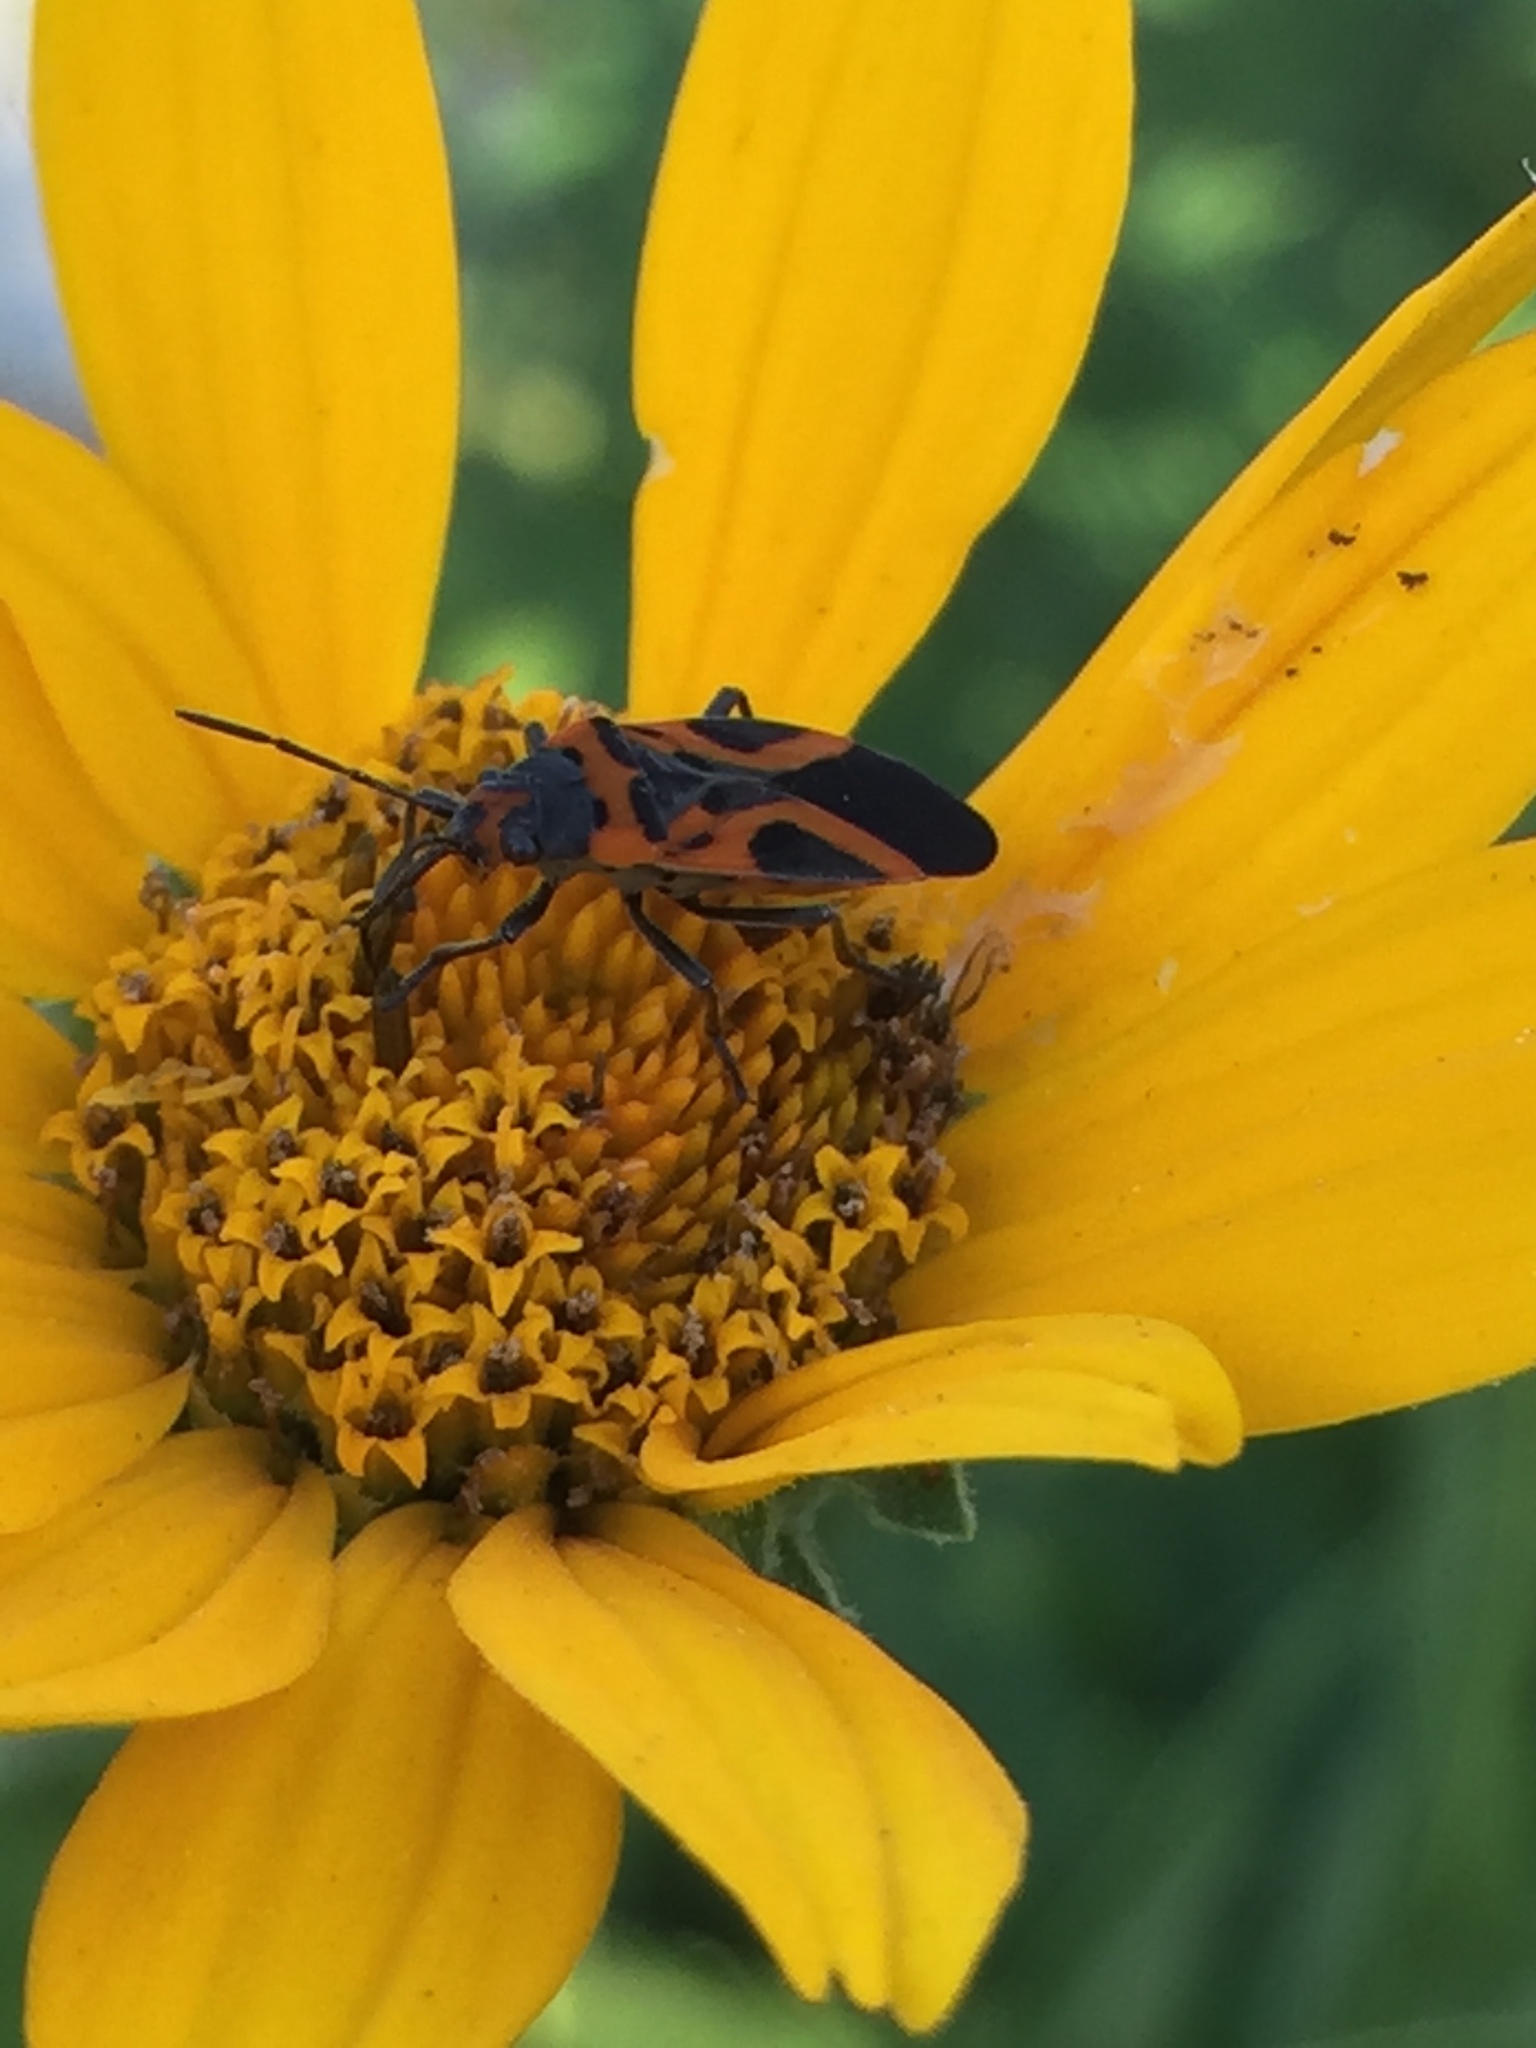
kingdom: Animalia
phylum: Arthropoda
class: Insecta
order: Hemiptera
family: Lygaeidae
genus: Lygaeus
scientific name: Lygaeus turcicus
